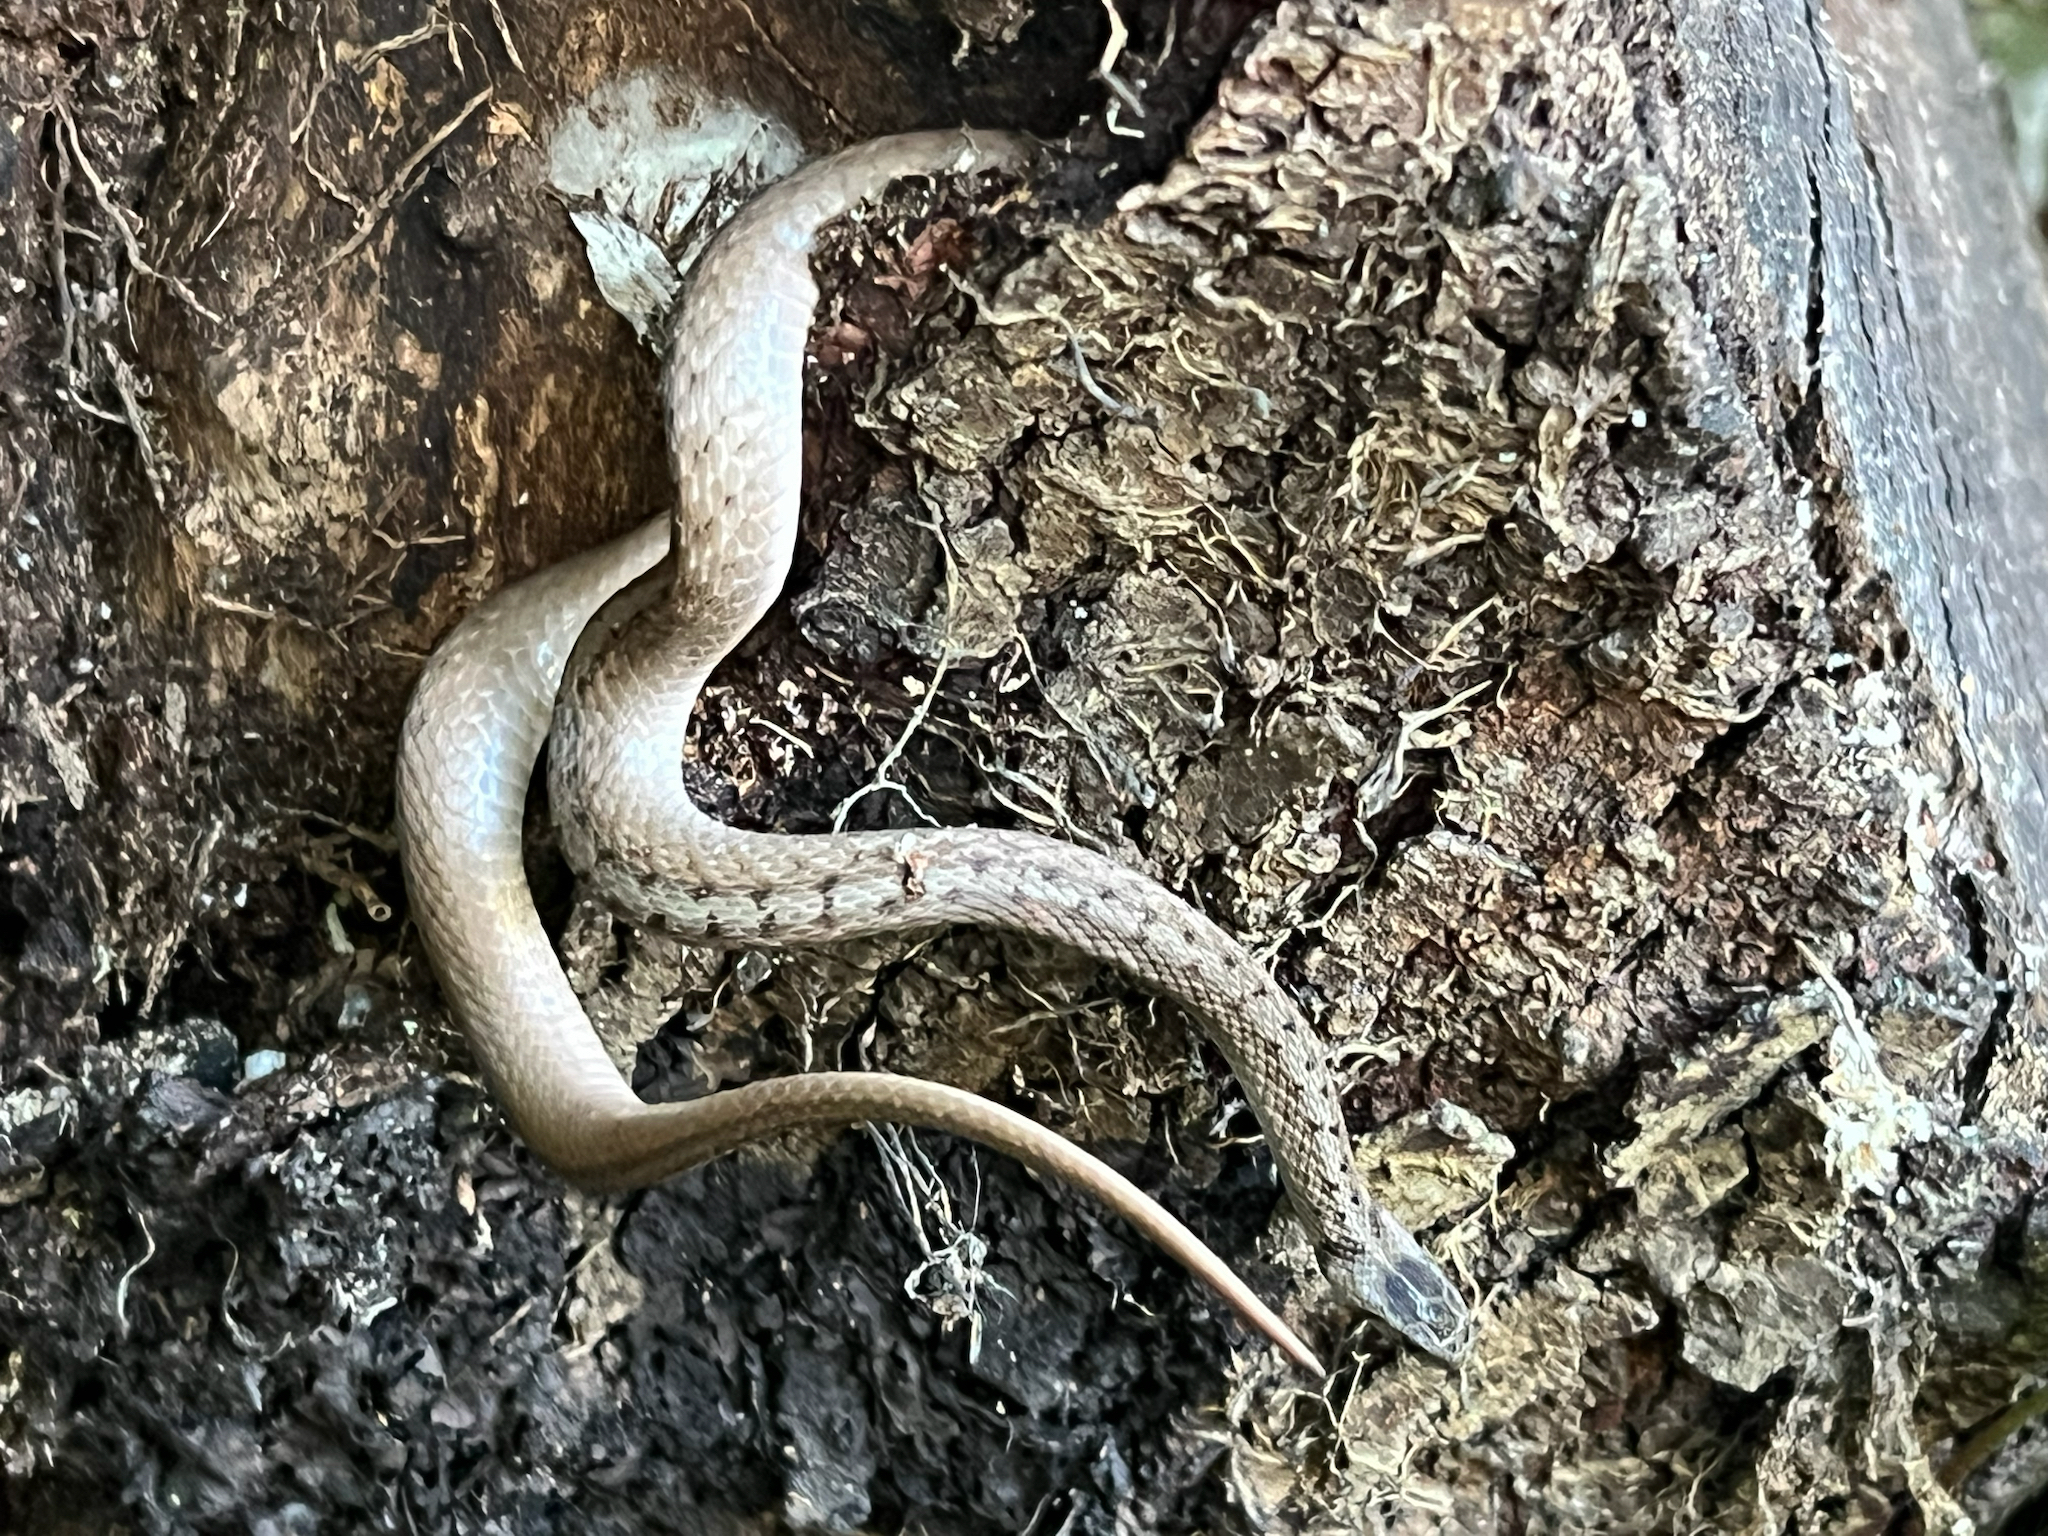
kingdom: Animalia
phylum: Chordata
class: Squamata
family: Colubridae
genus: Storeria
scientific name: Storeria dekayi
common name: (dekay’s) brown snake
